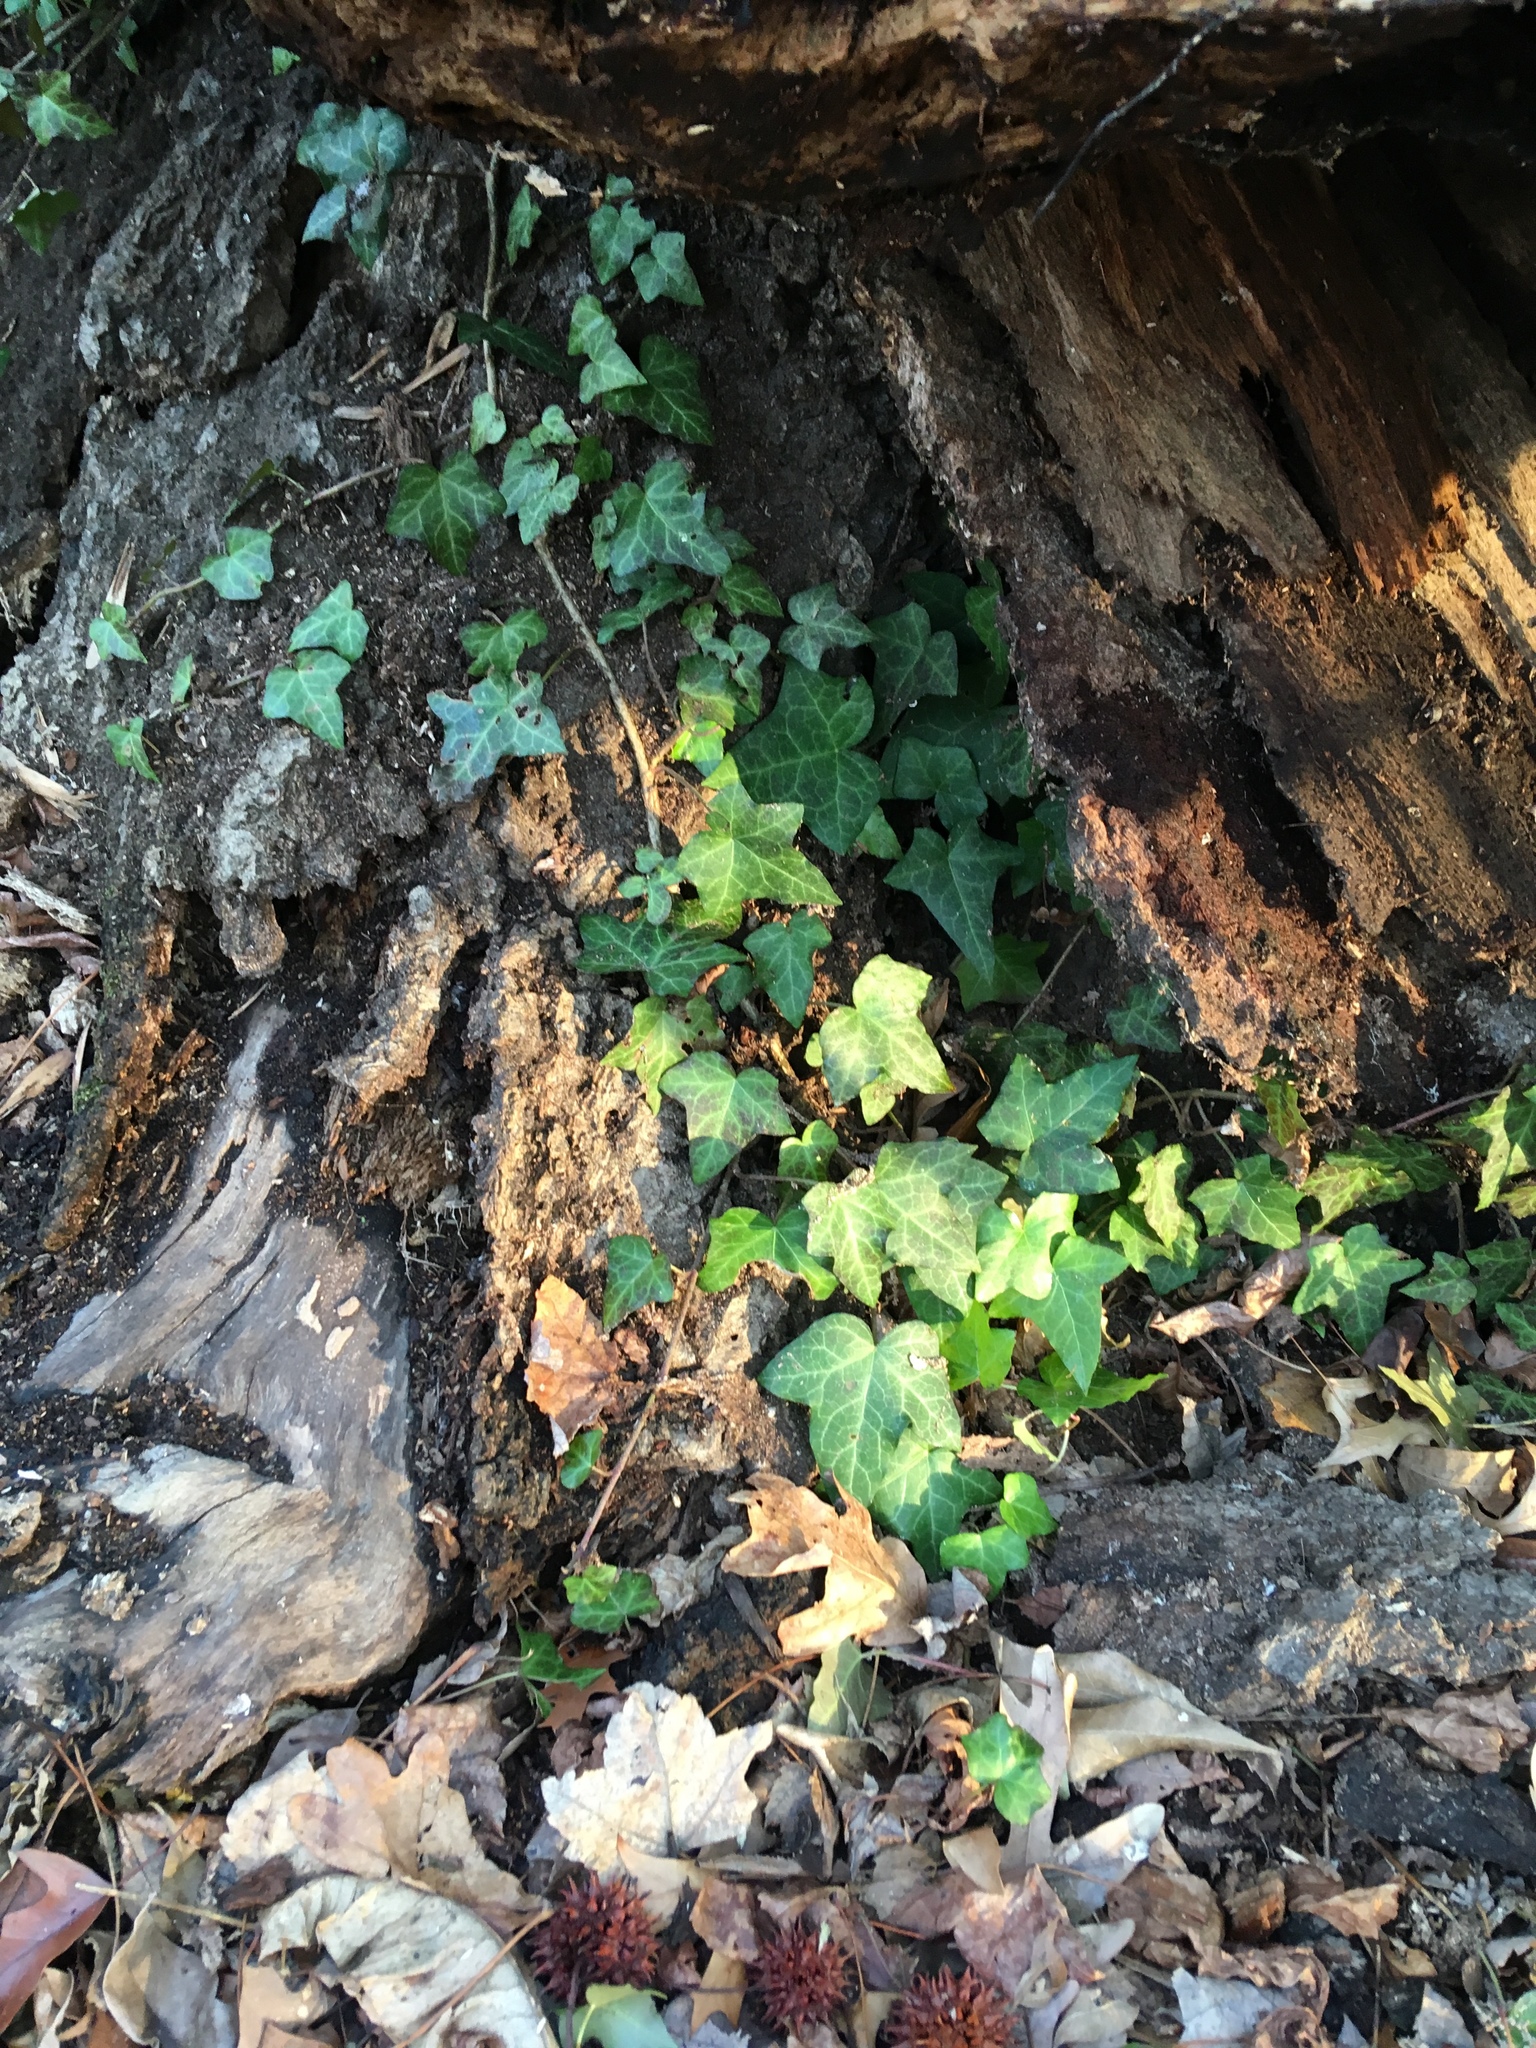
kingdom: Plantae
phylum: Tracheophyta
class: Magnoliopsida
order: Apiales
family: Araliaceae
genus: Hedera
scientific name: Hedera helix
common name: Ivy
